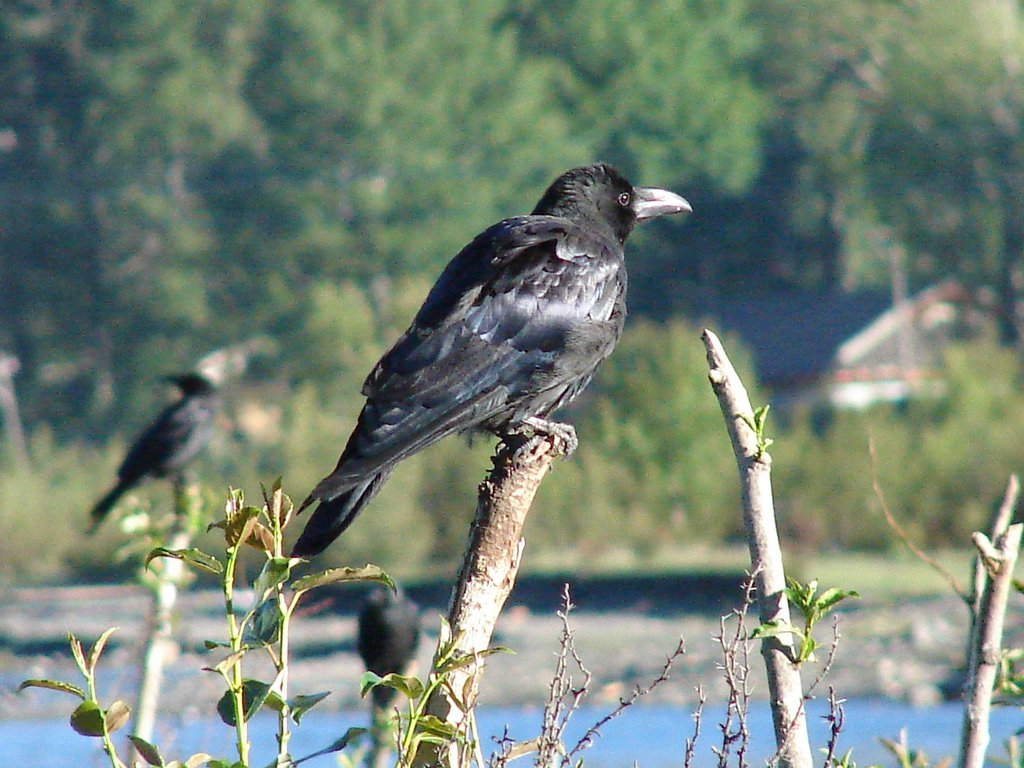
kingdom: Animalia
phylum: Chordata
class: Aves
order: Passeriformes
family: Corvidae
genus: Corvus
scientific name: Corvus macrorhynchos
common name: Large-billed crow
